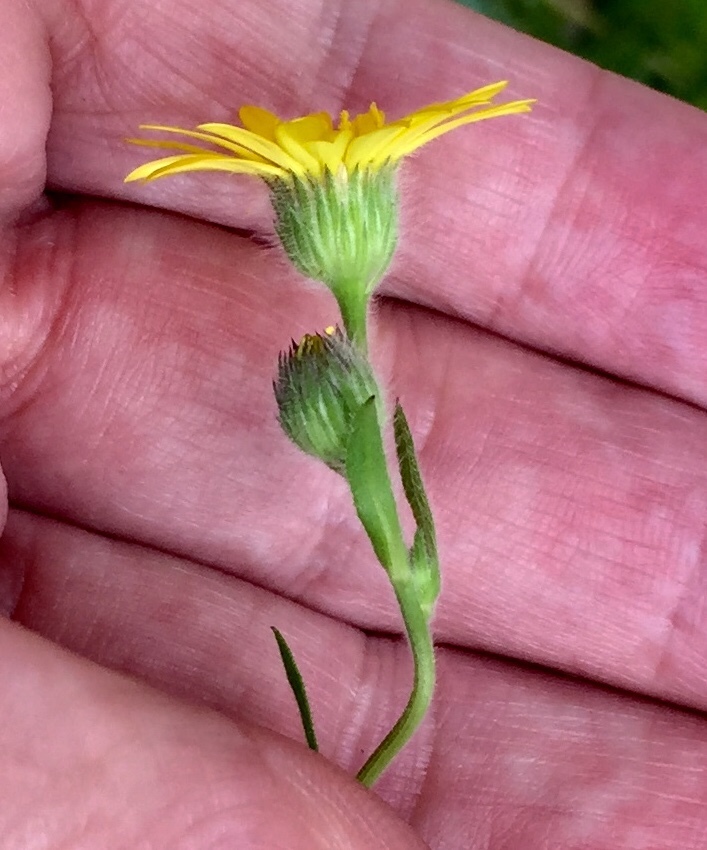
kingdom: Plantae
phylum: Tracheophyta
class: Magnoliopsida
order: Asterales
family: Asteraceae
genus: Bradburia
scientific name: Bradburia pilosa
